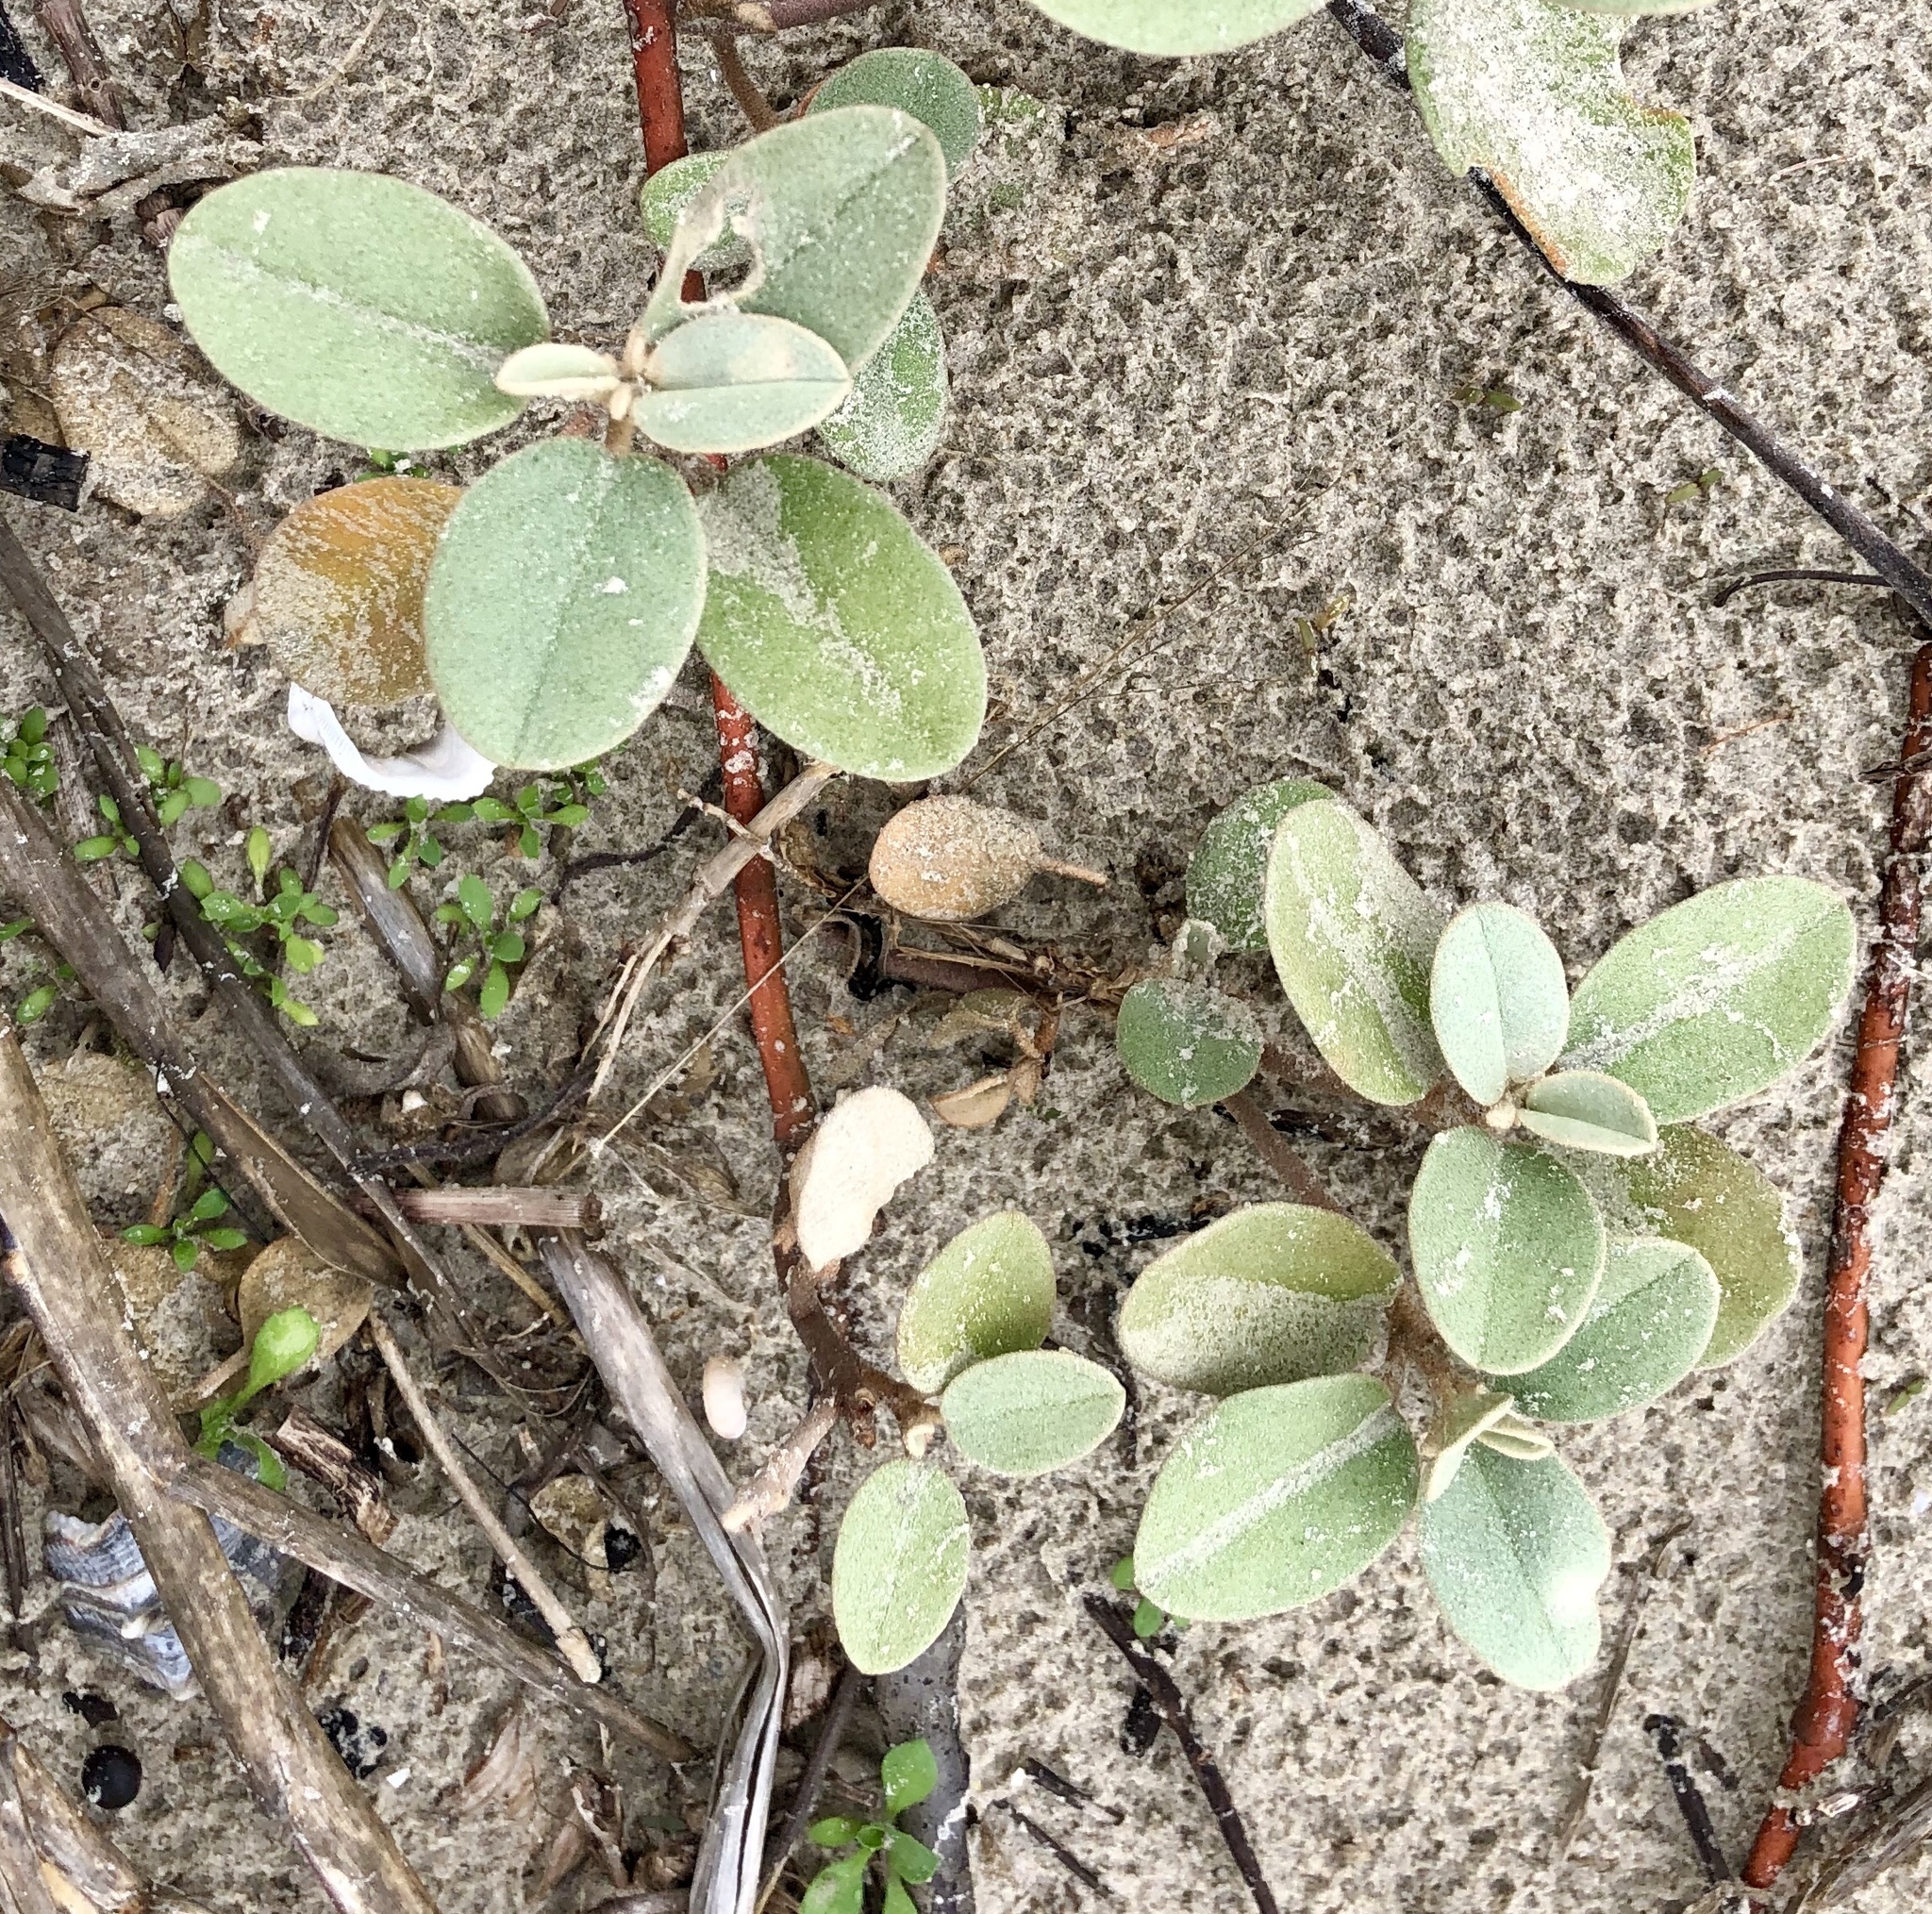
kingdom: Plantae
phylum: Tracheophyta
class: Magnoliopsida
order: Malpighiales
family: Euphorbiaceae
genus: Croton
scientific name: Croton punctatus
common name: Beach-tea
